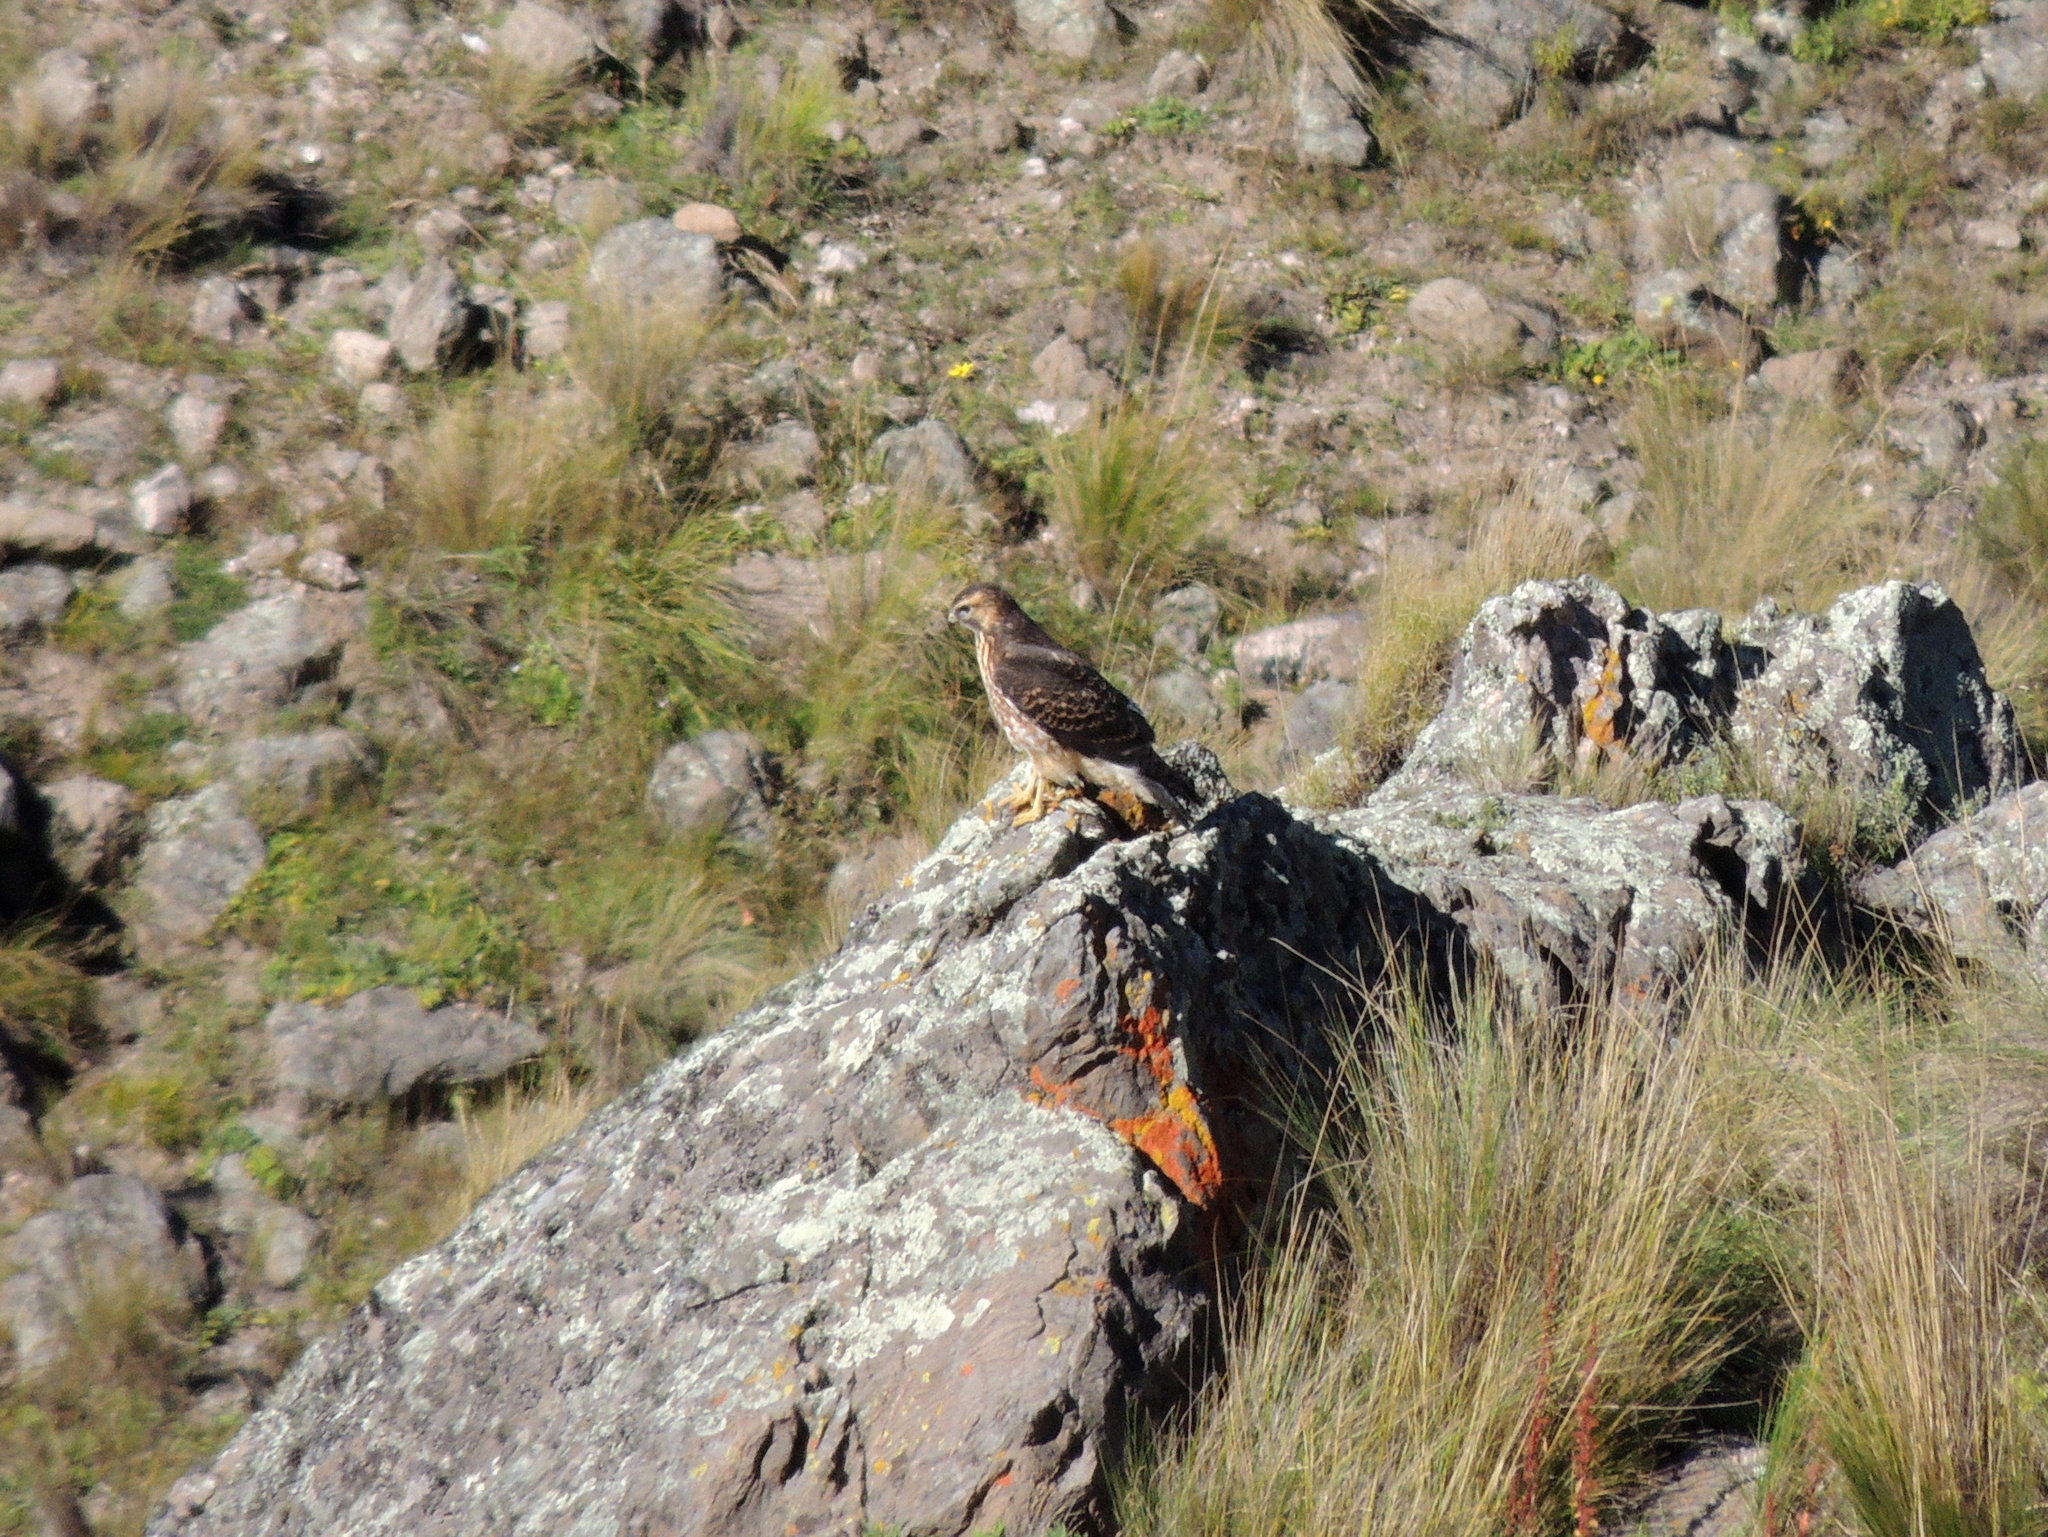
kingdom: Animalia
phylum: Chordata
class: Aves
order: Accipitriformes
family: Accipitridae
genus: Buteo
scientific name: Buteo polyosoma
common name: Variable hawk
